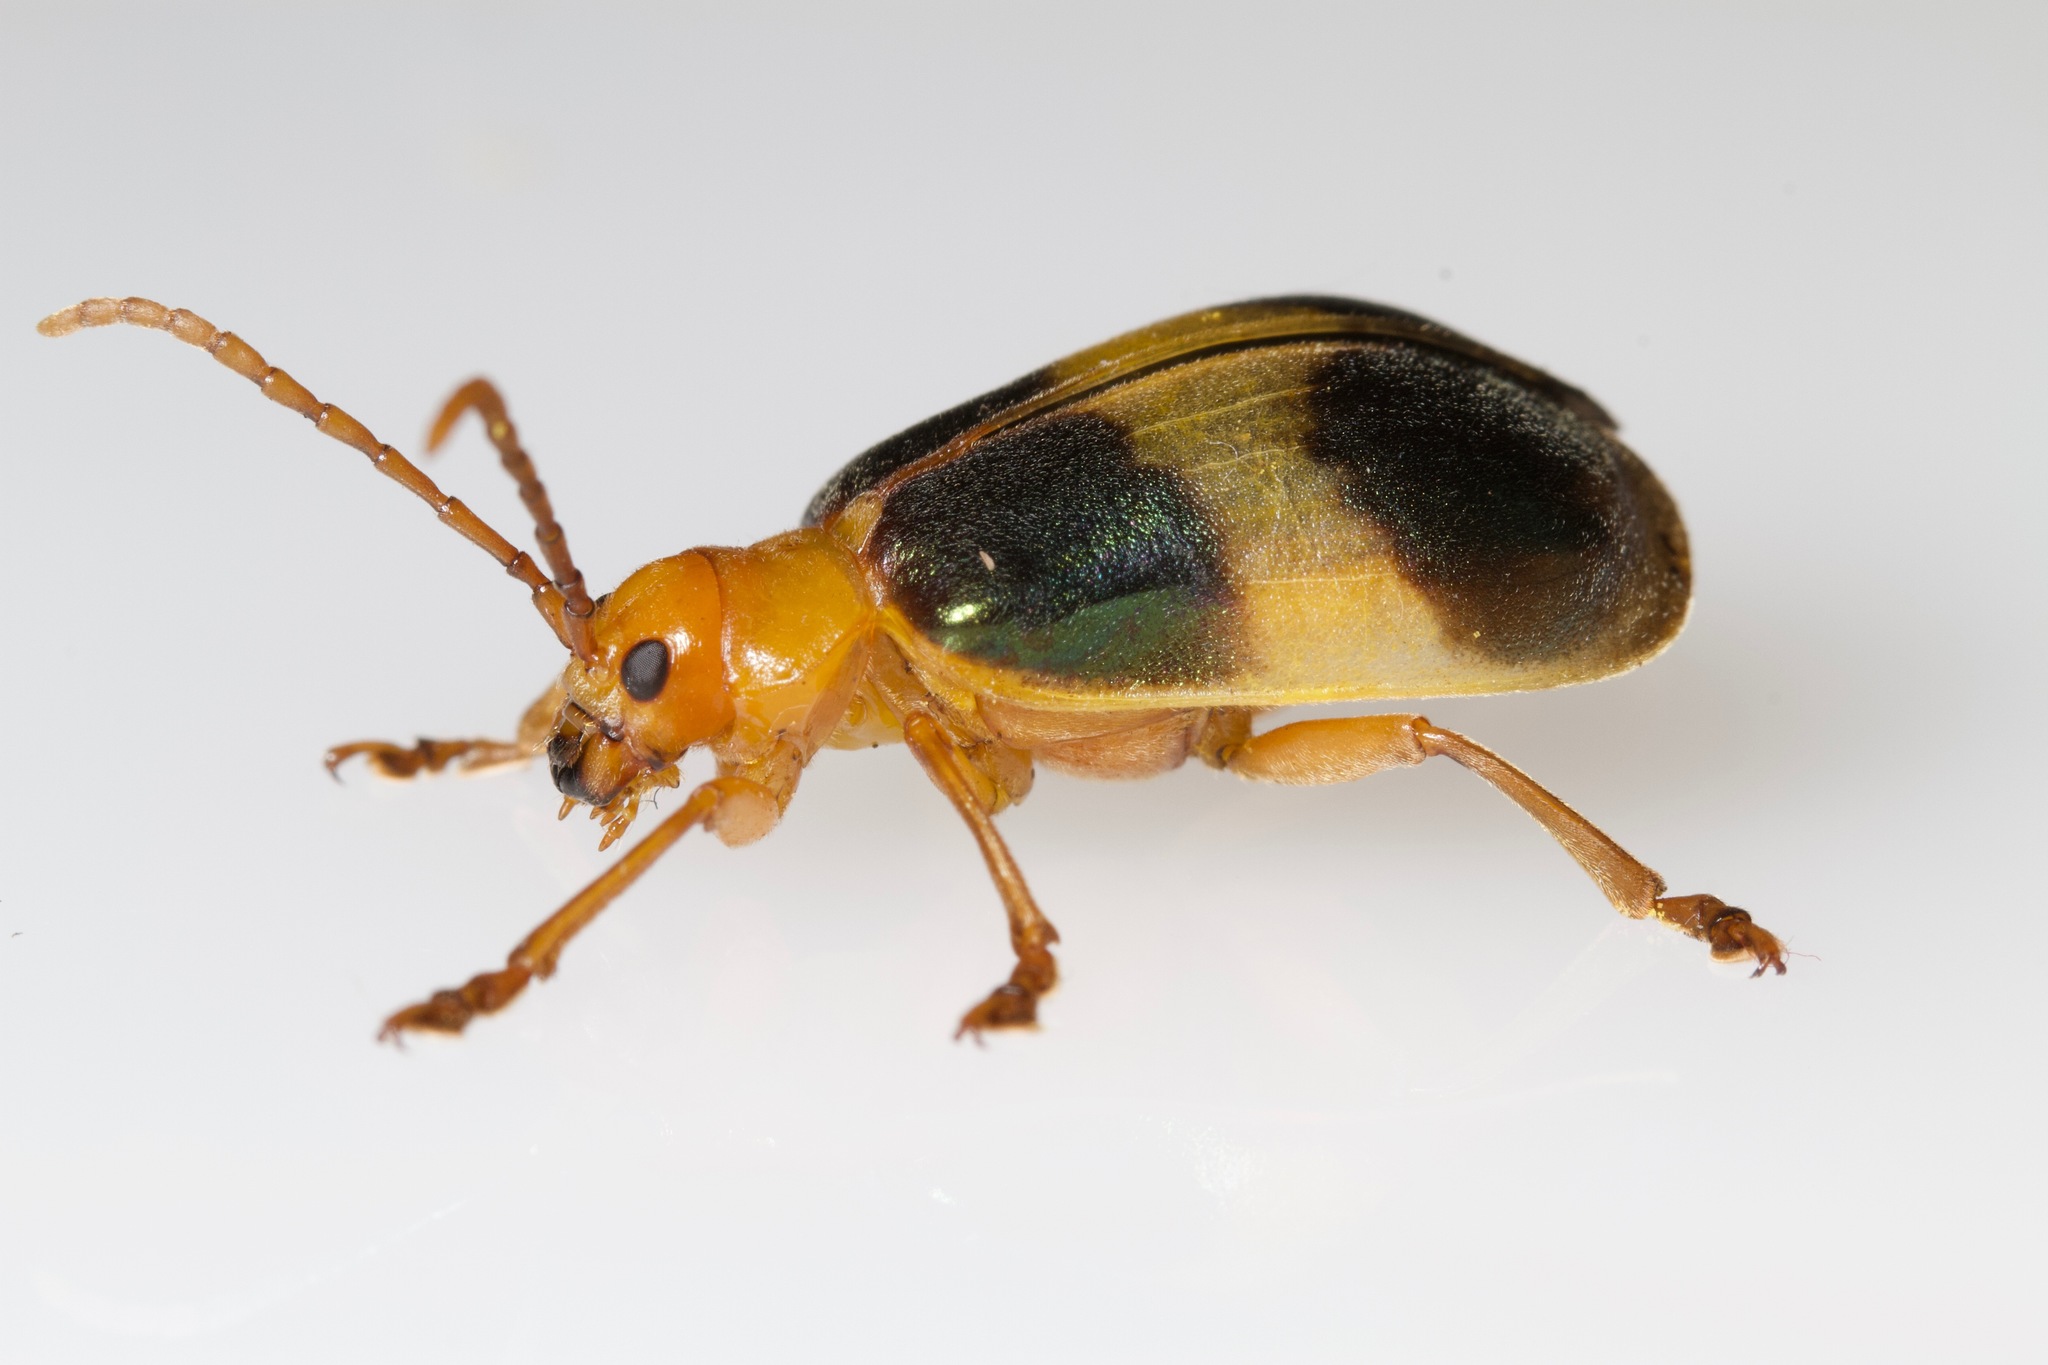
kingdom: Animalia
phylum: Arthropoda
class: Insecta
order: Coleoptera
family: Chrysomelidae
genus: Monocesta
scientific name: Monocesta coryli
